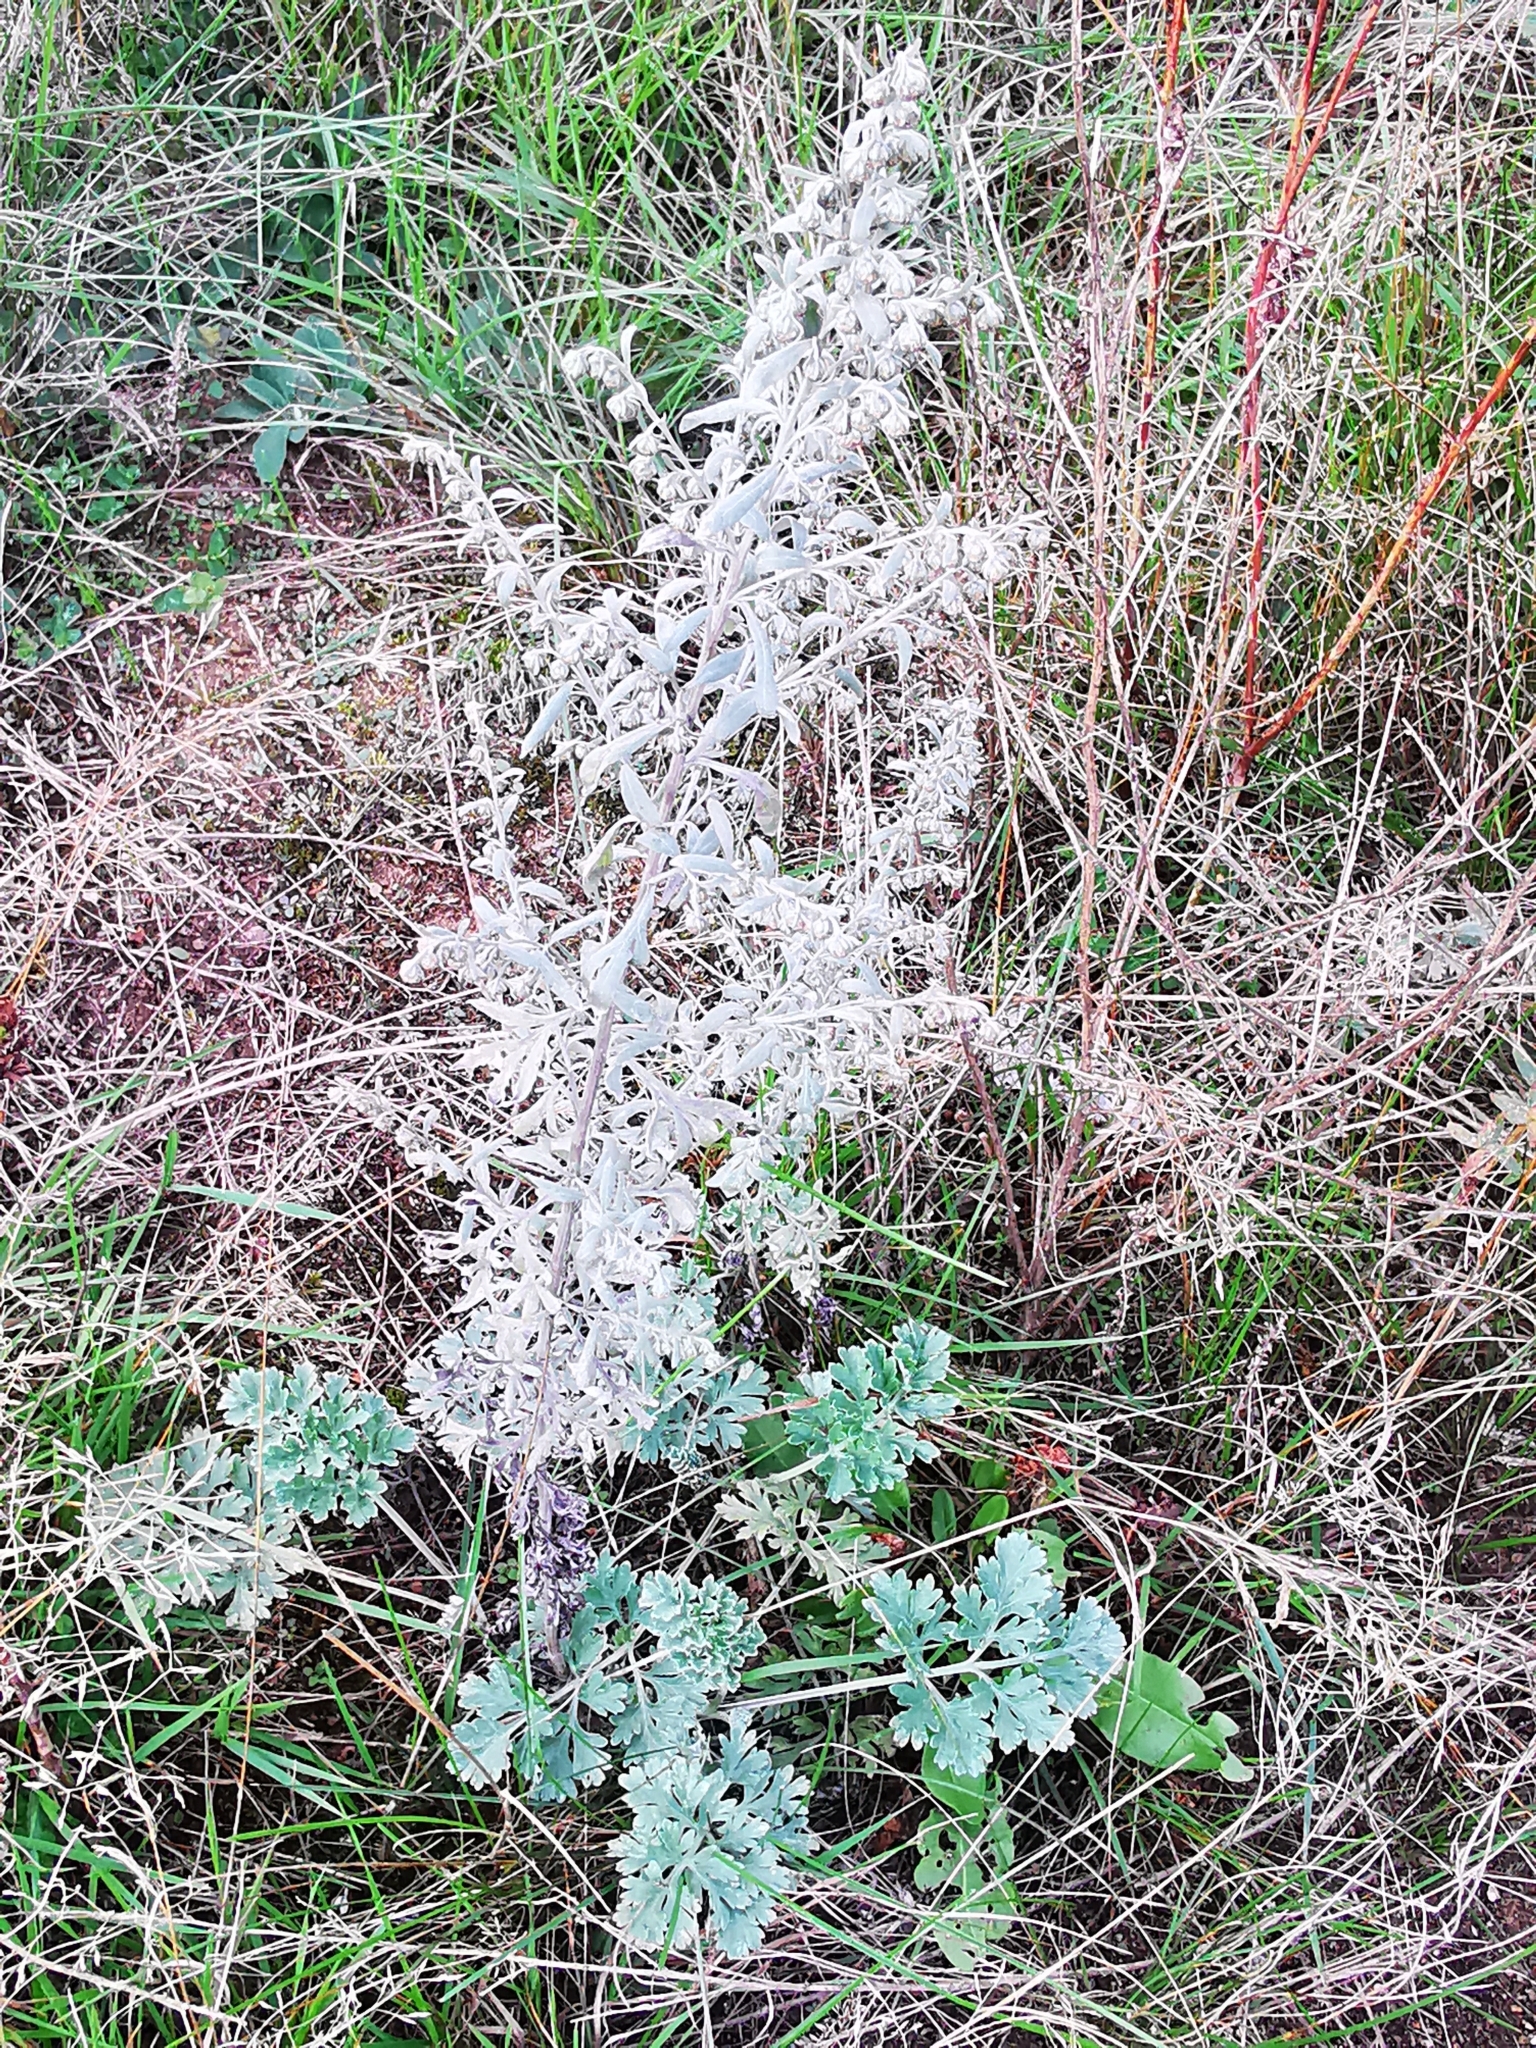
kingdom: Plantae
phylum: Tracheophyta
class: Magnoliopsida
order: Asterales
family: Asteraceae
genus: Artemisia
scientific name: Artemisia absinthium
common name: Wormwood
